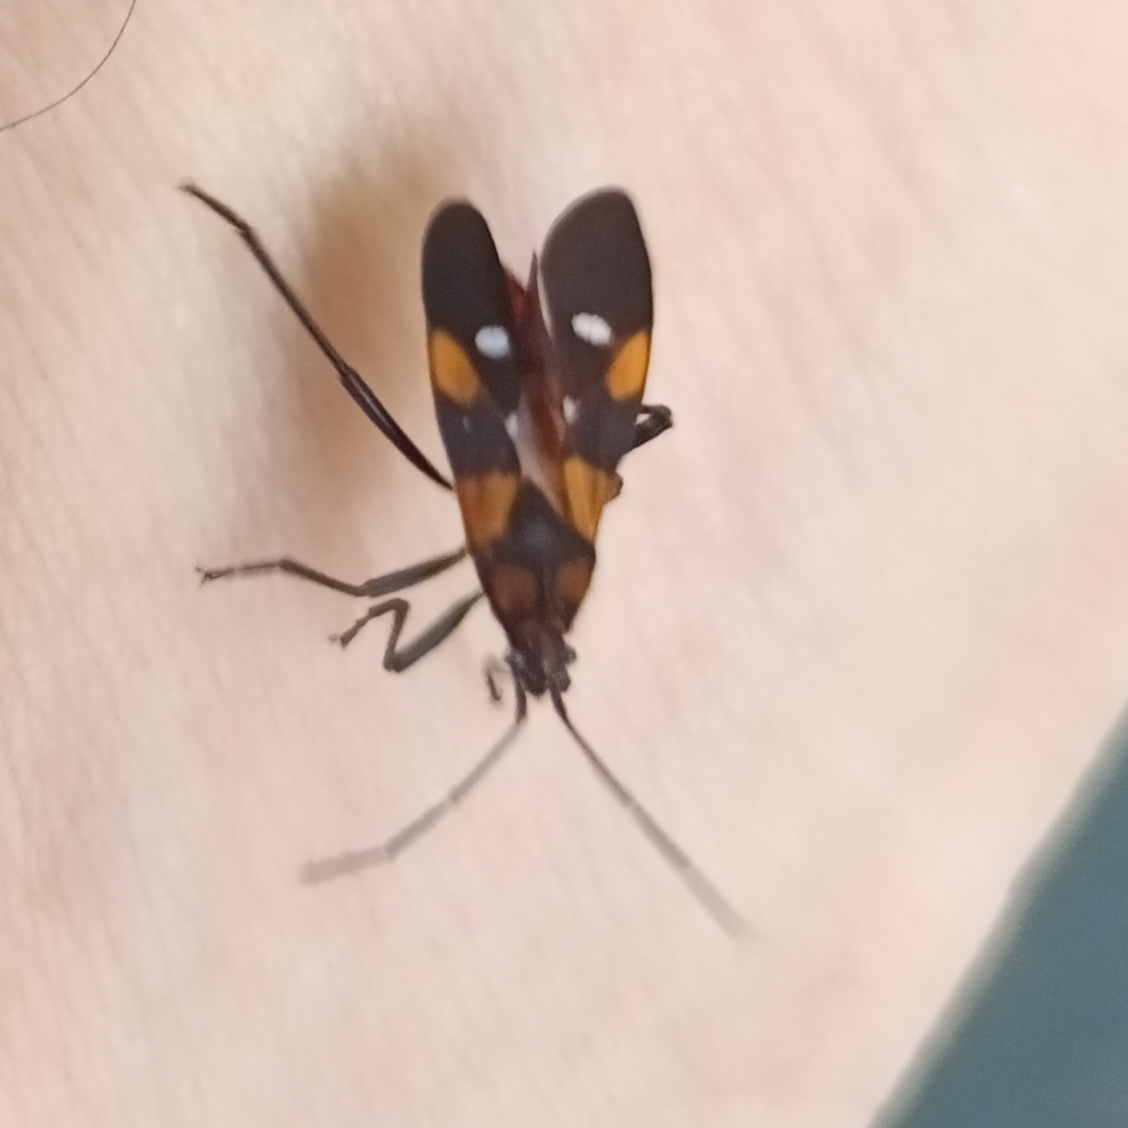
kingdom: Animalia
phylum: Arthropoda
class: Insecta
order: Hemiptera
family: Lygaeidae
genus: Oncopeltus
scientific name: Oncopeltus famelicus
